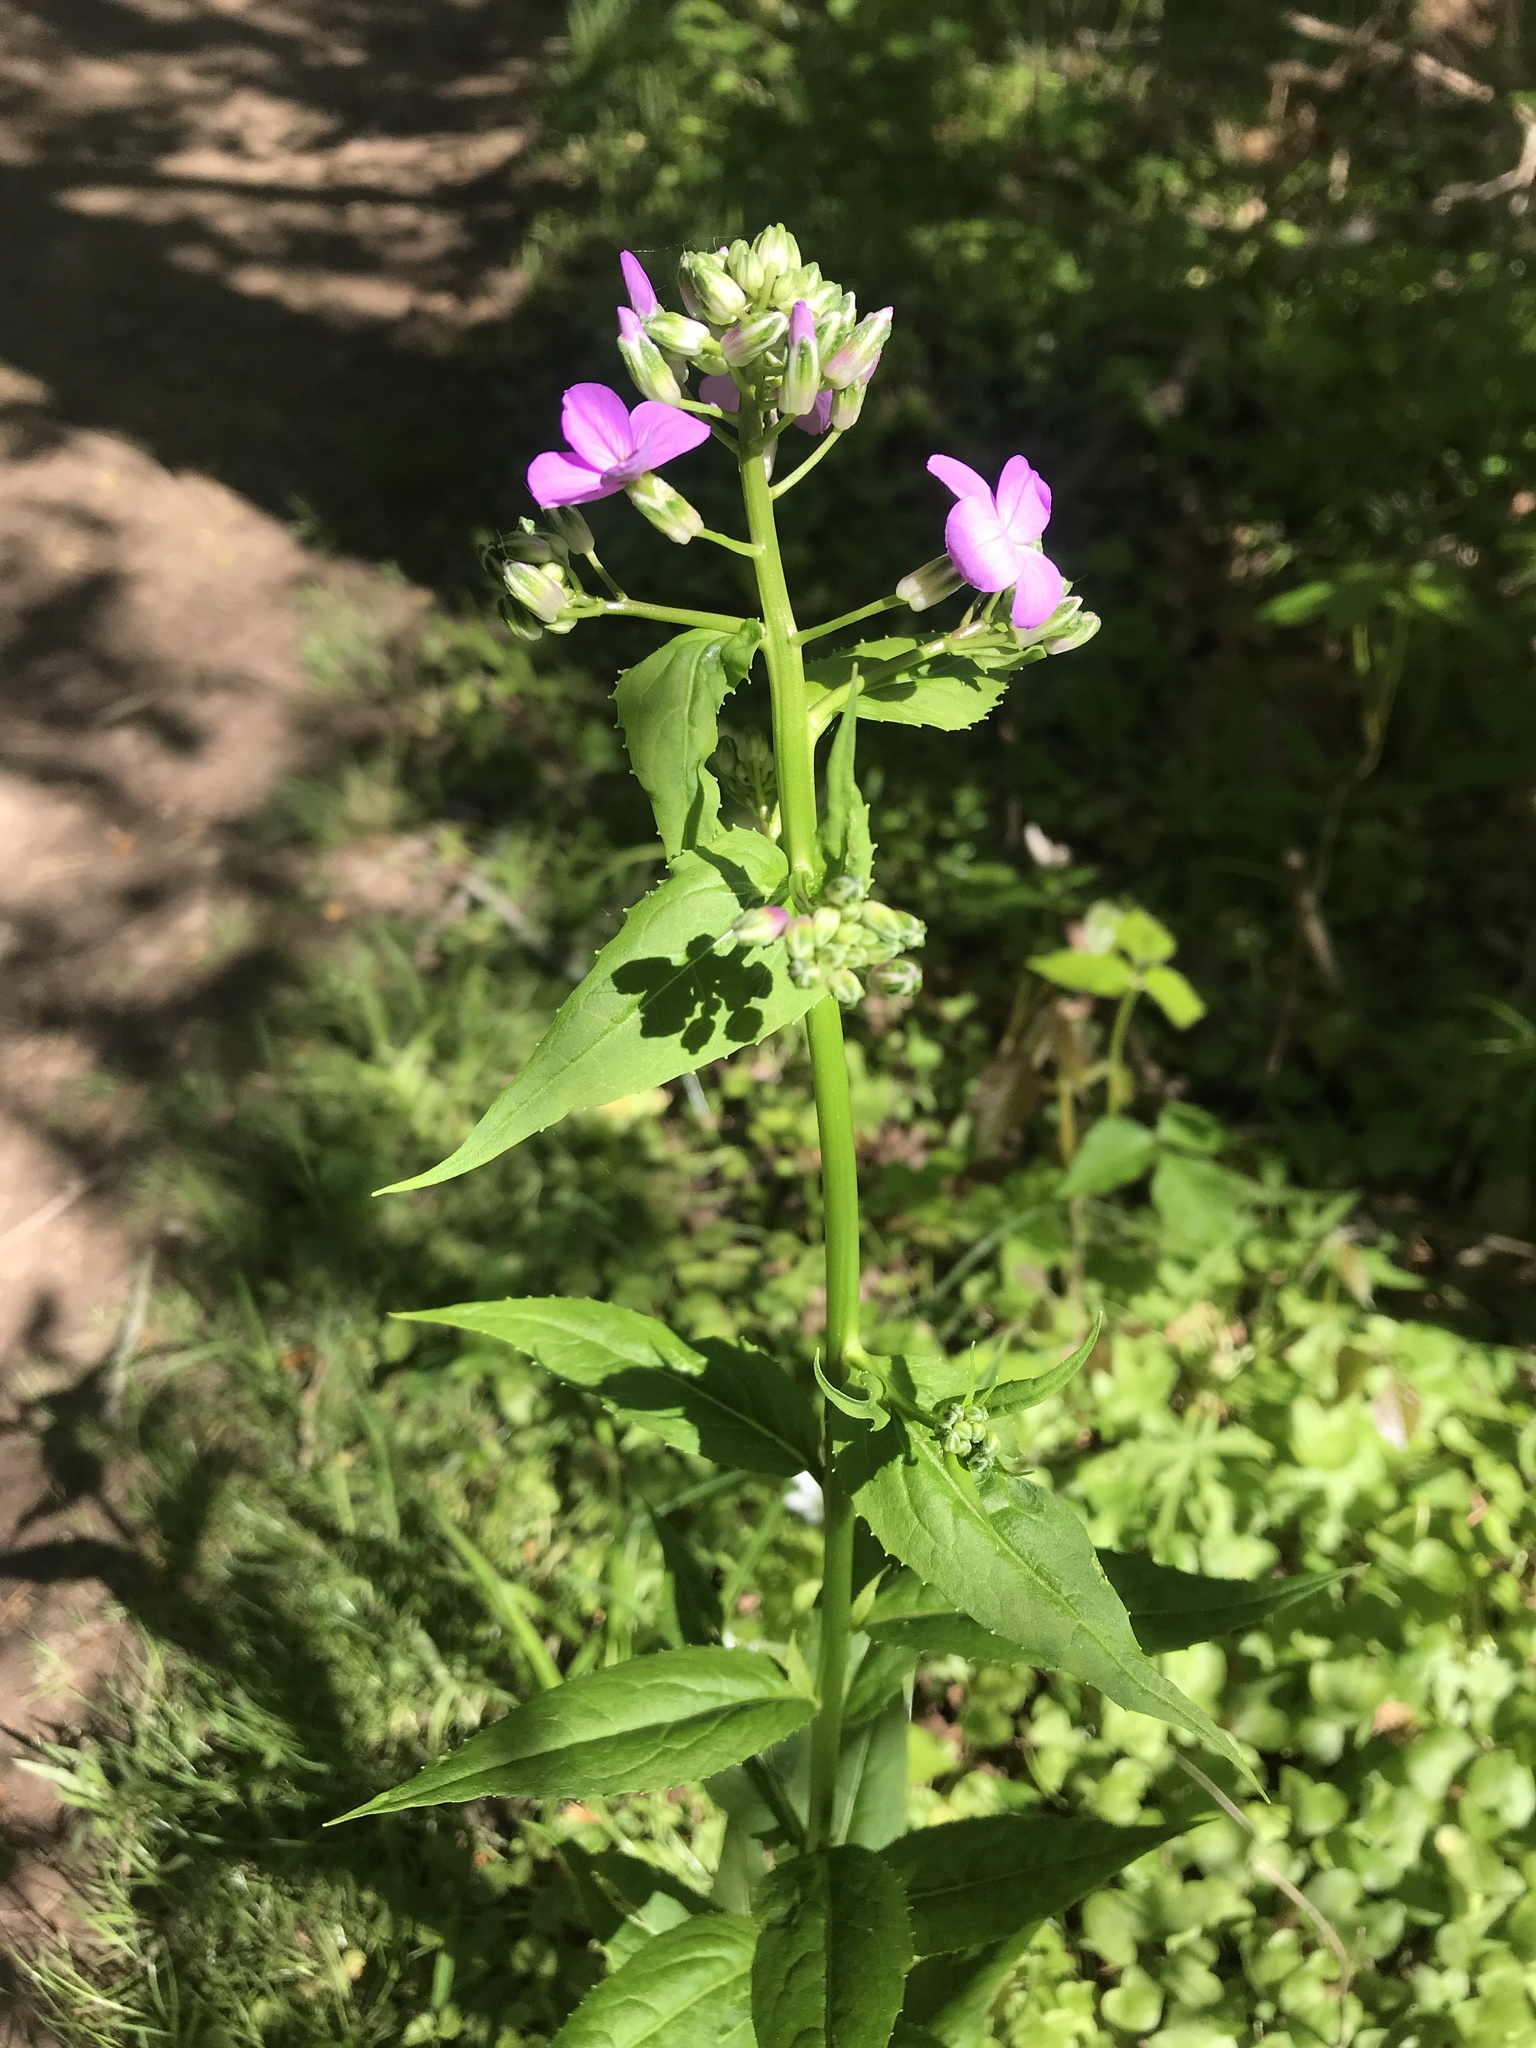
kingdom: Plantae
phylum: Tracheophyta
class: Magnoliopsida
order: Brassicales
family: Brassicaceae
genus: Hesperis
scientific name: Hesperis matronalis
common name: Dame's-violet
